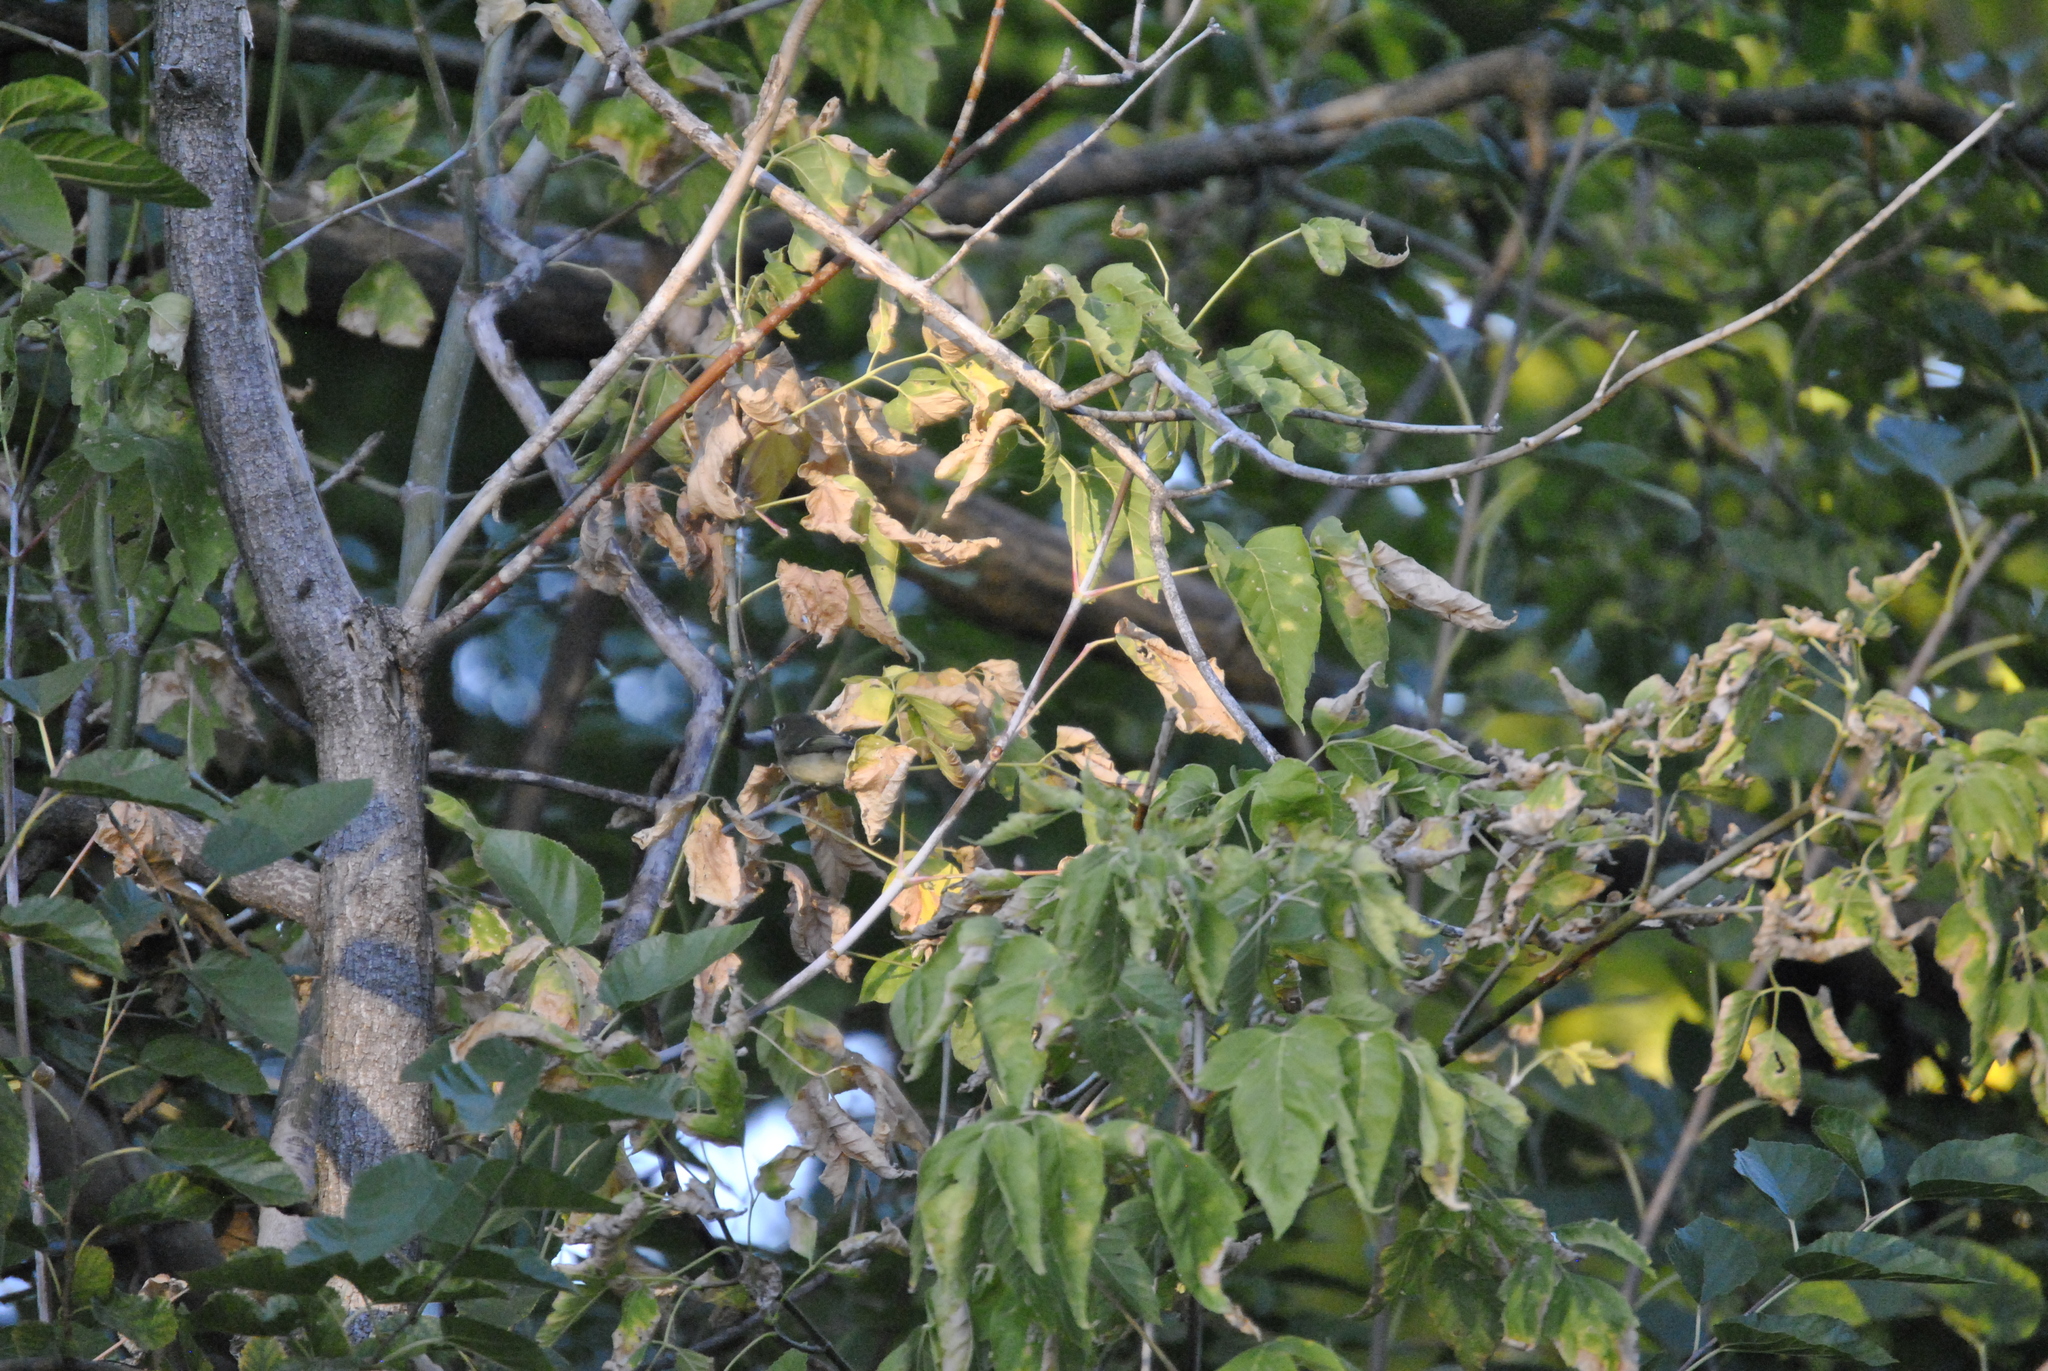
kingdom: Plantae
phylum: Tracheophyta
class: Magnoliopsida
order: Sapindales
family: Sapindaceae
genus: Acer
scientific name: Acer negundo
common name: Ashleaf maple
